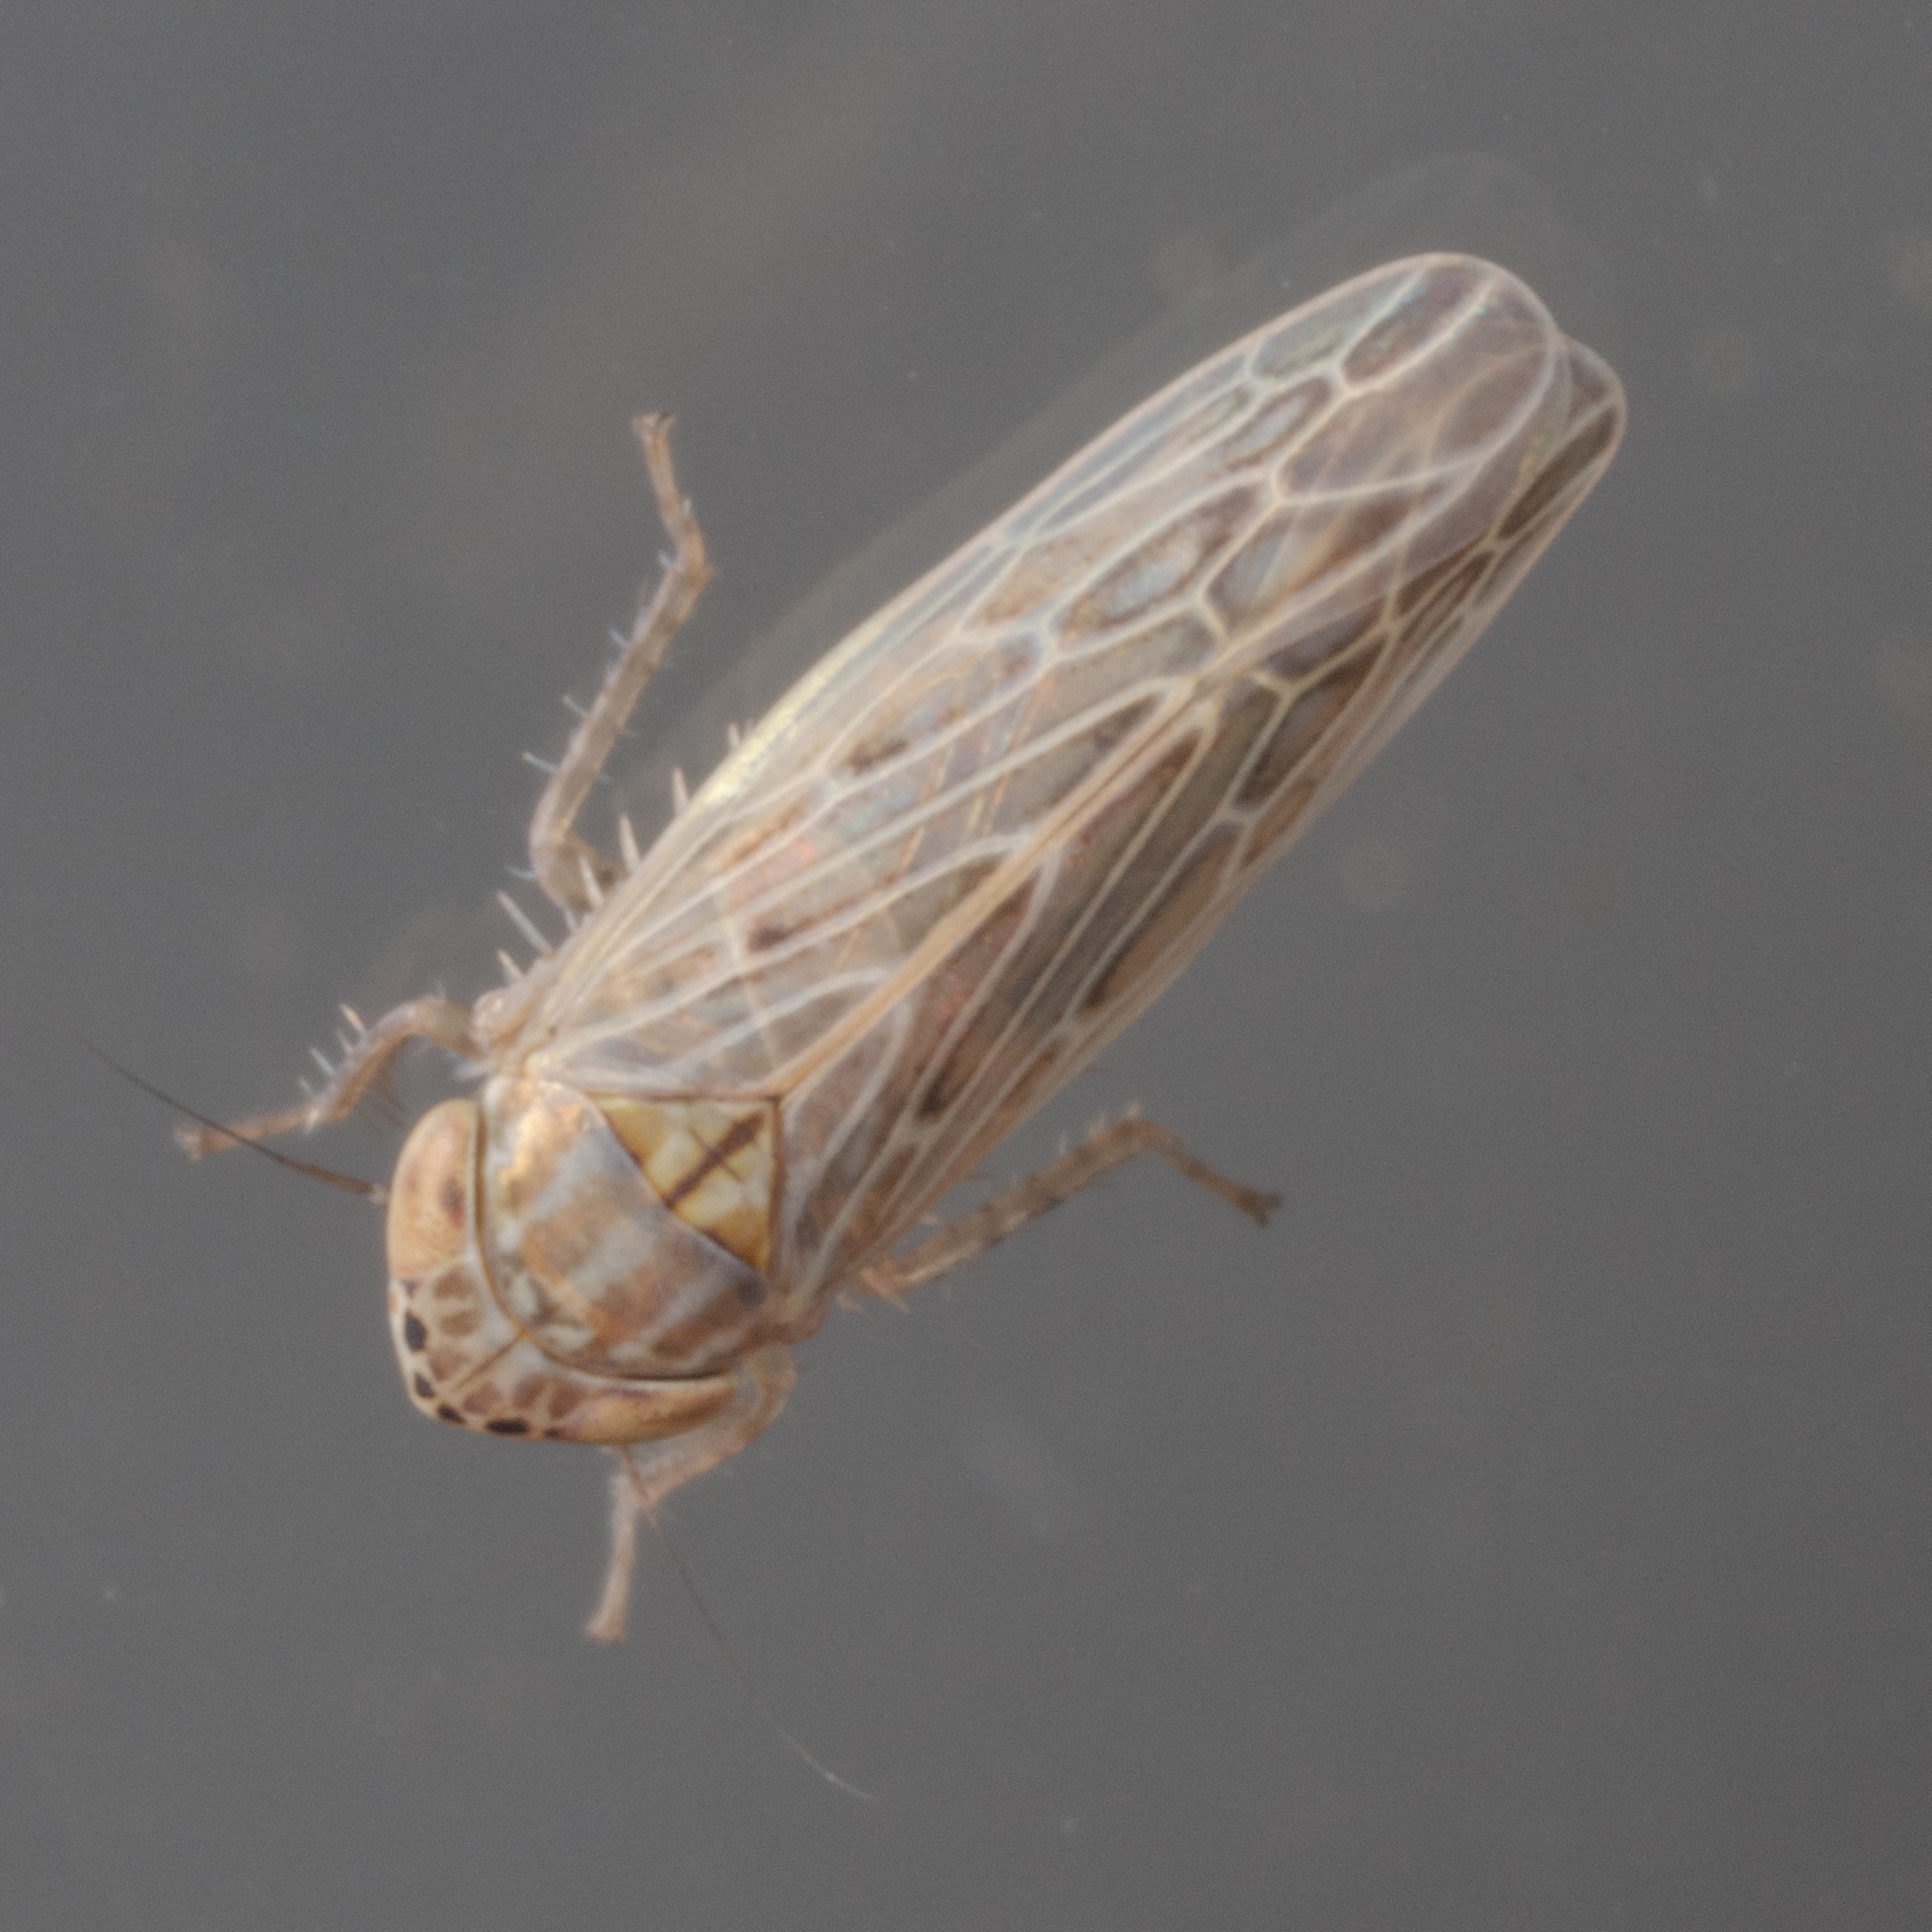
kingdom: Animalia
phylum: Arthropoda
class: Insecta
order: Hemiptera
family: Cicadellidae
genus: Graminella
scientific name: Graminella sonora
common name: Lesser lawn leafhopper
